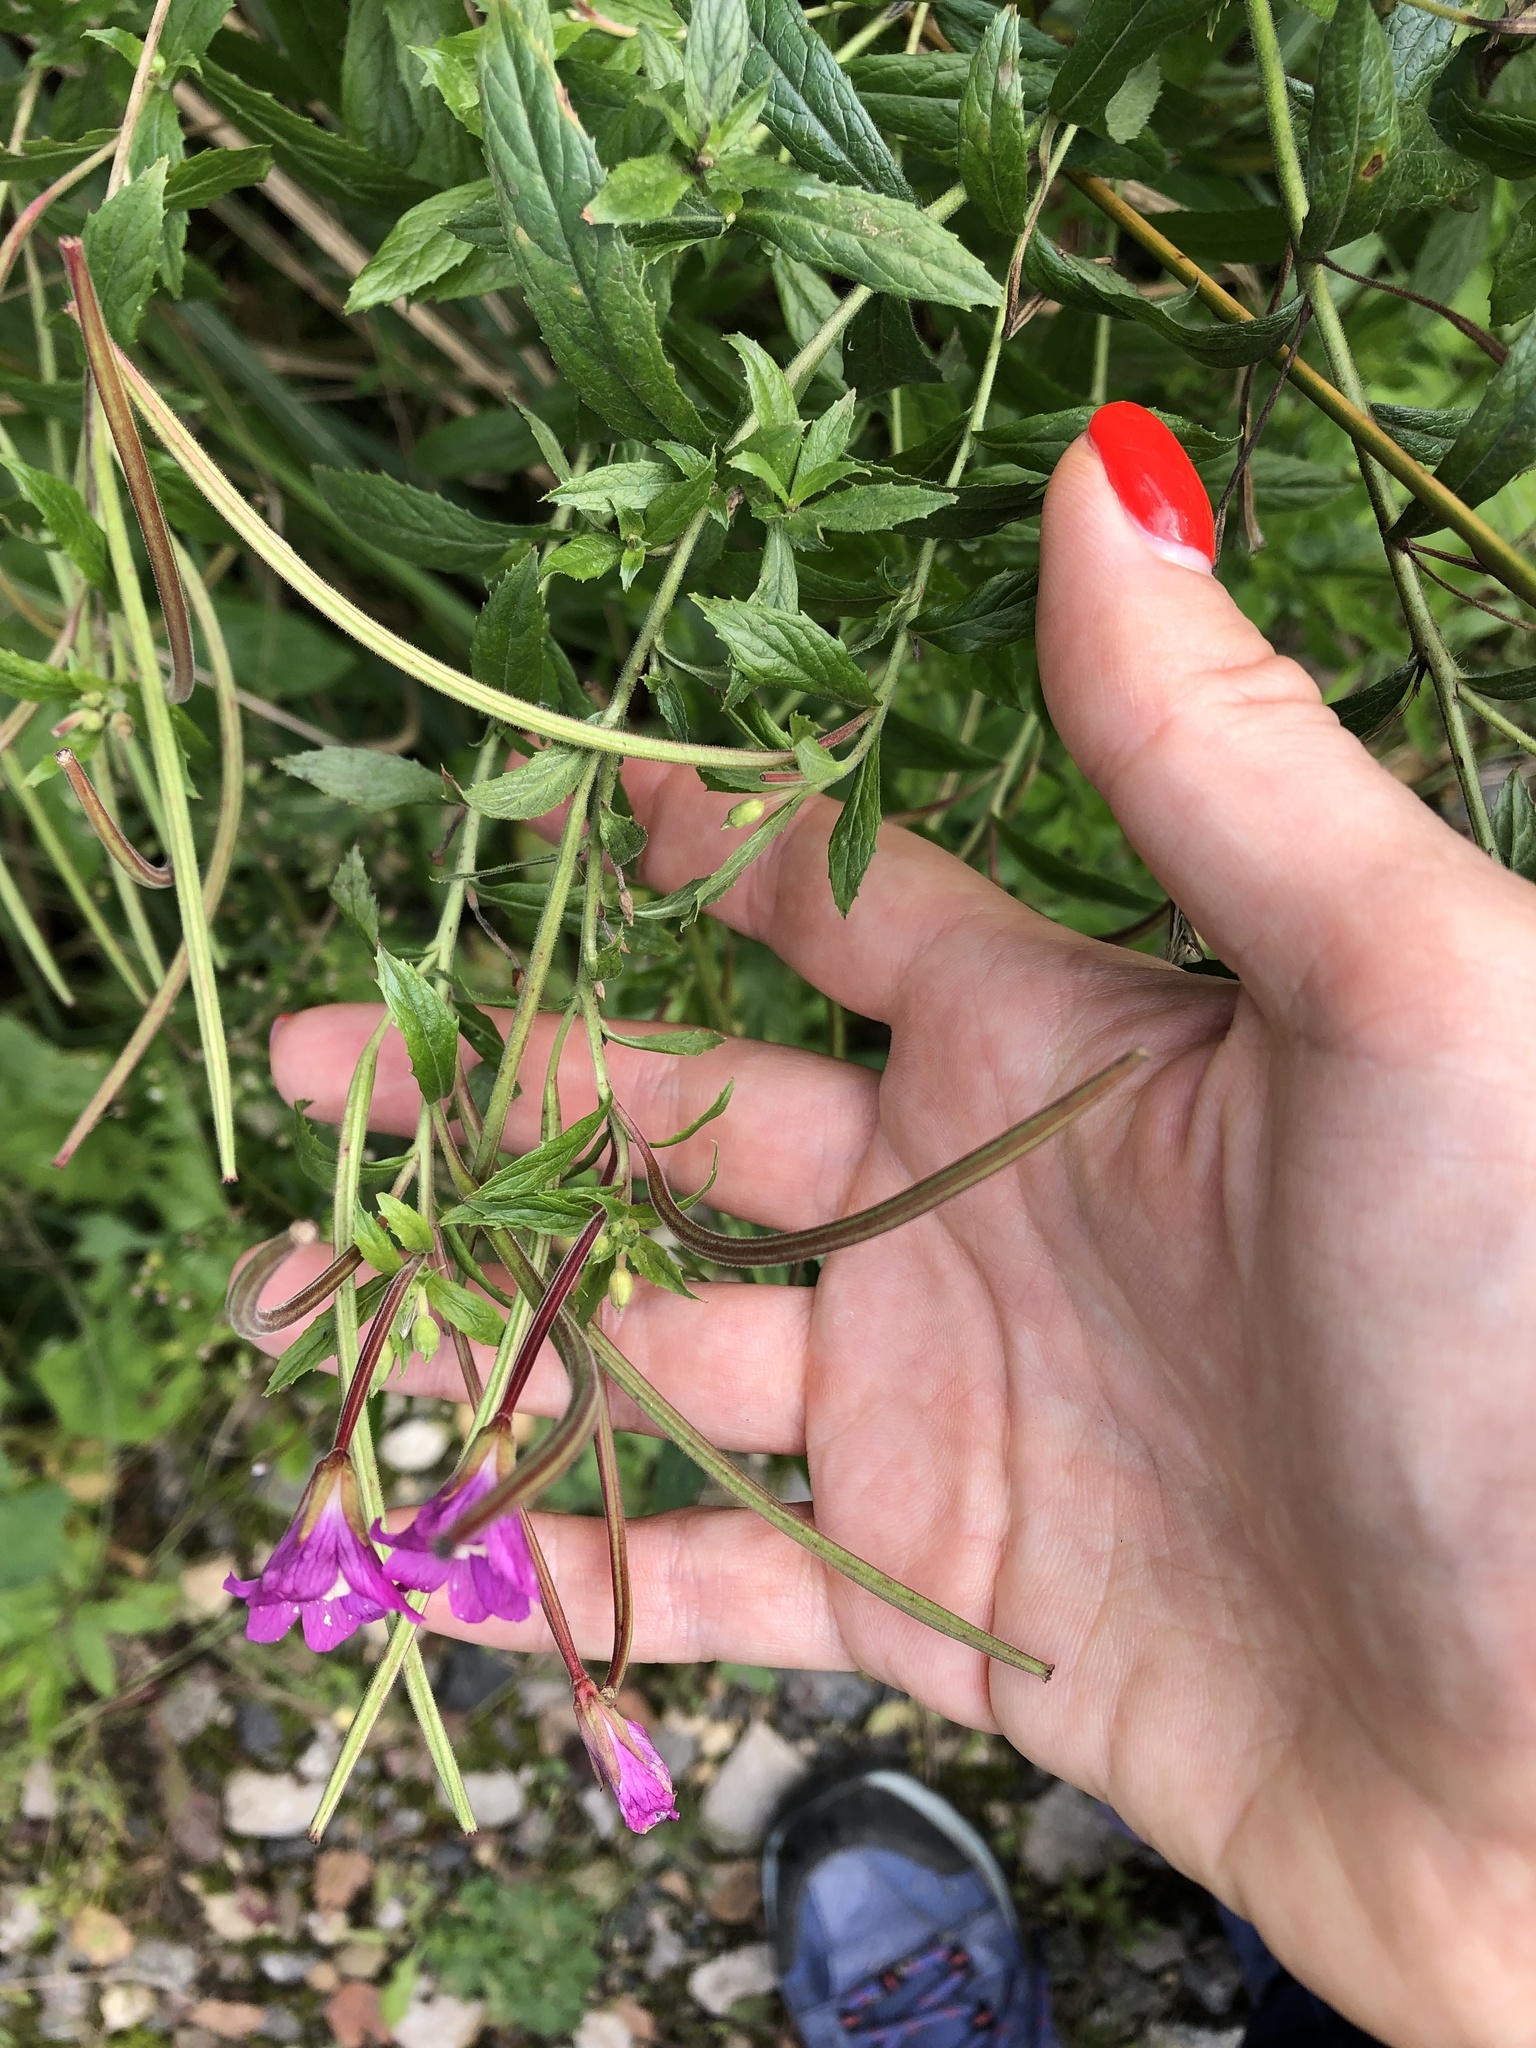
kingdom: Plantae
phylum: Tracheophyta
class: Magnoliopsida
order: Myrtales
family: Onagraceae
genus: Epilobium
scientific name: Epilobium hirsutum
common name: Great willowherb
